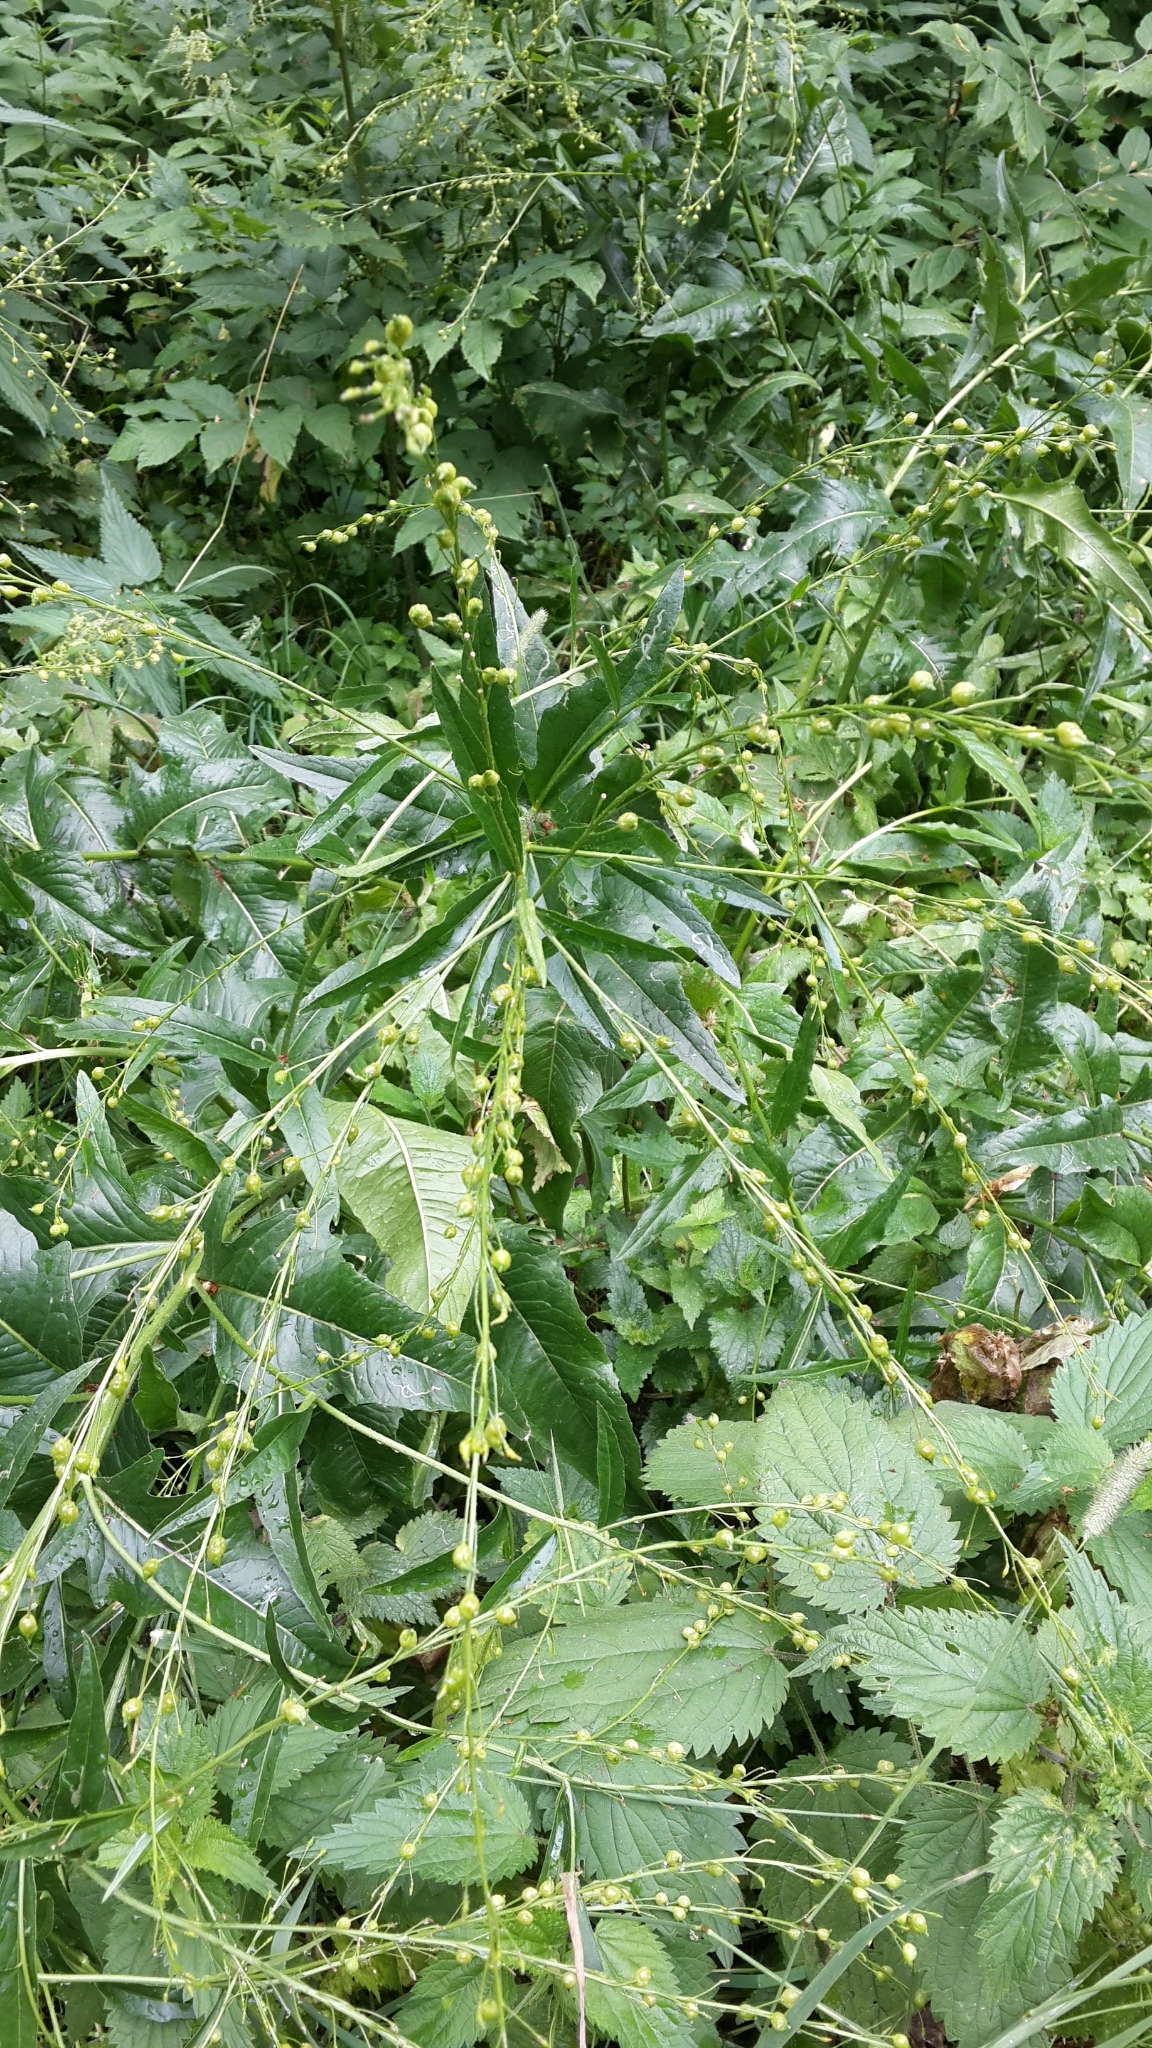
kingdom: Plantae
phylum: Tracheophyta
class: Magnoliopsida
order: Brassicales
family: Brassicaceae
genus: Bunias
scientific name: Bunias orientalis
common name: Warty-cabbage
